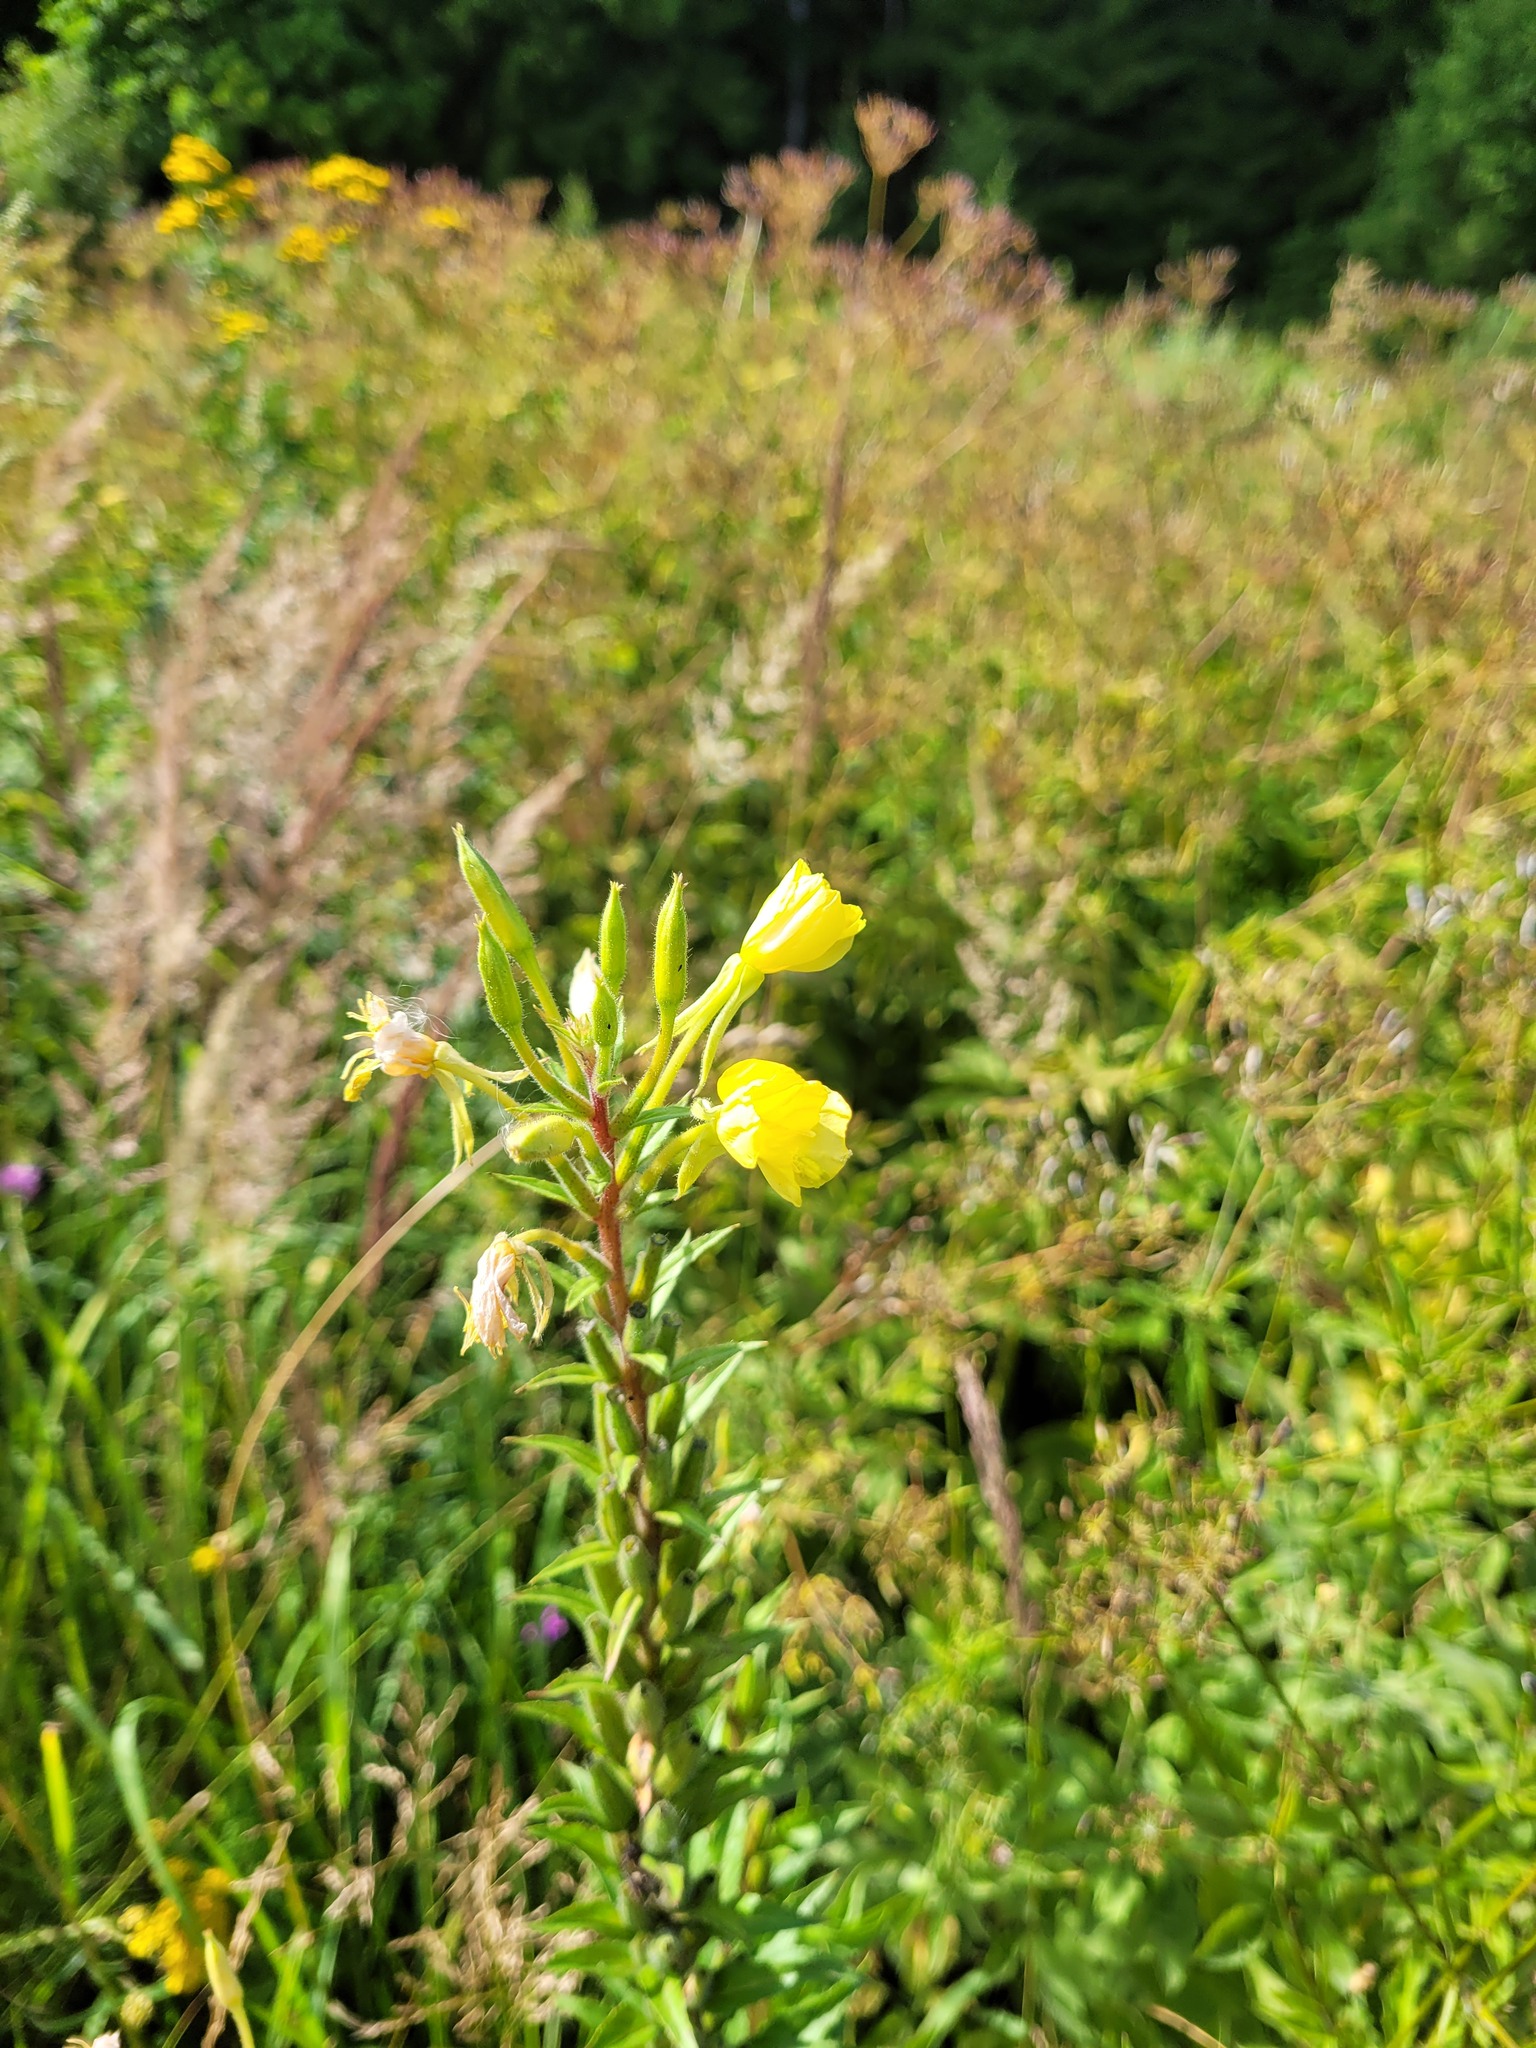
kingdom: Plantae
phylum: Tracheophyta
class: Magnoliopsida
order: Myrtales
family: Onagraceae
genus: Oenothera
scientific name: Oenothera rubricaulis
